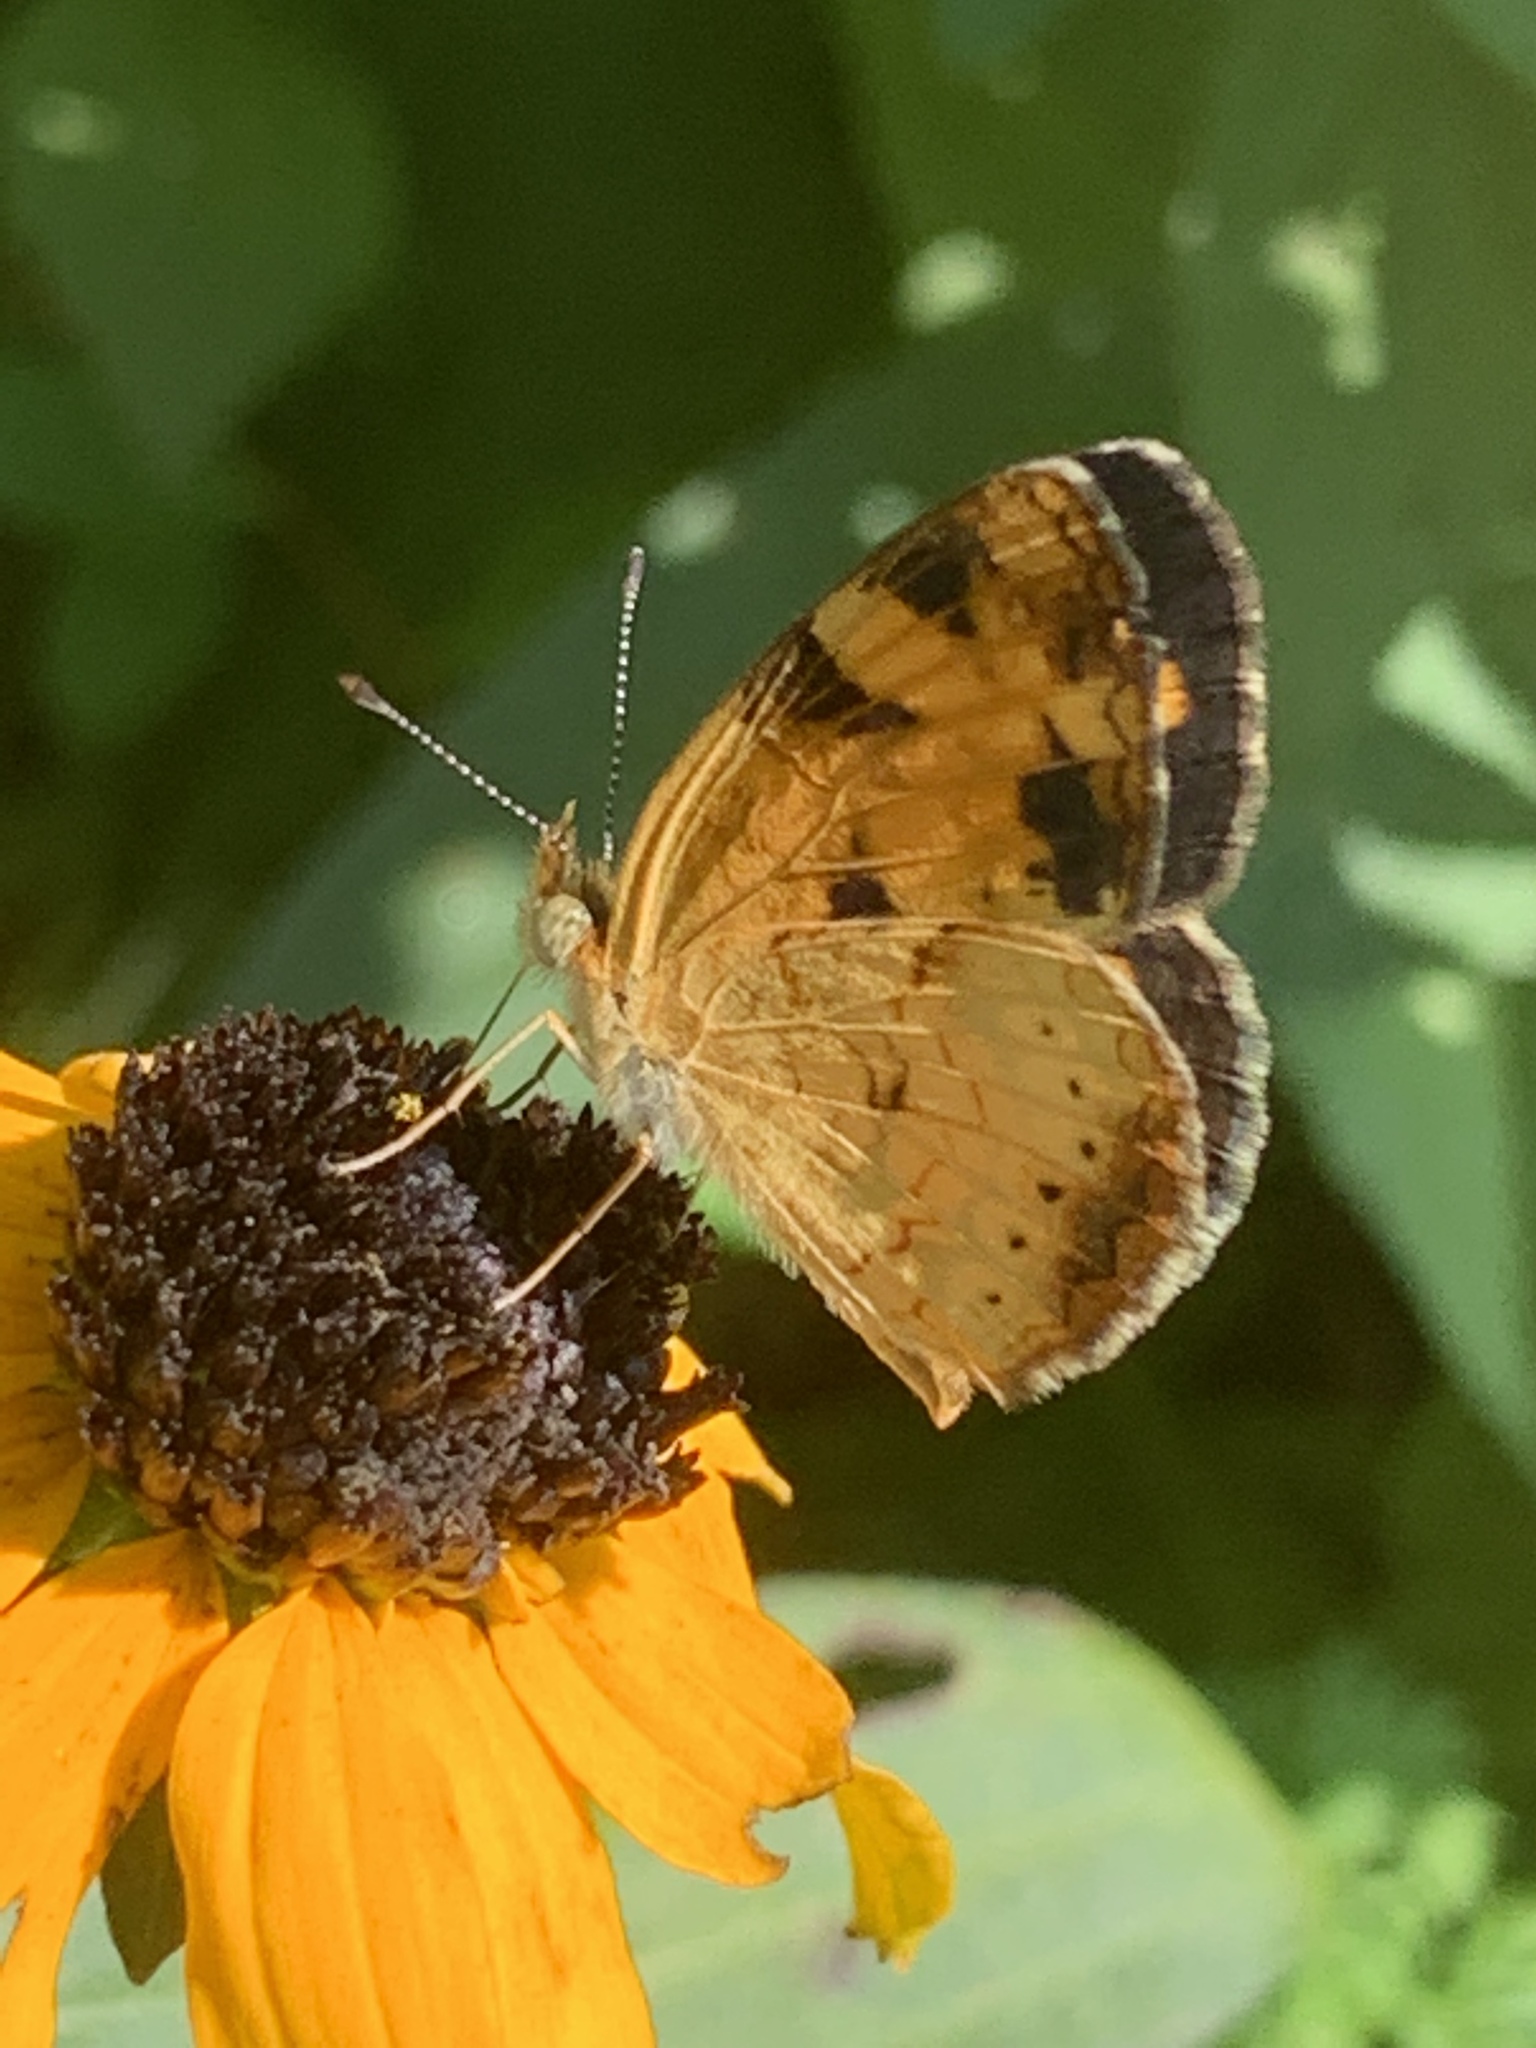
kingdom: Animalia
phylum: Arthropoda
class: Insecta
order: Lepidoptera
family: Nymphalidae
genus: Phyciodes
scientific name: Phyciodes tharos
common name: Pearl crescent
